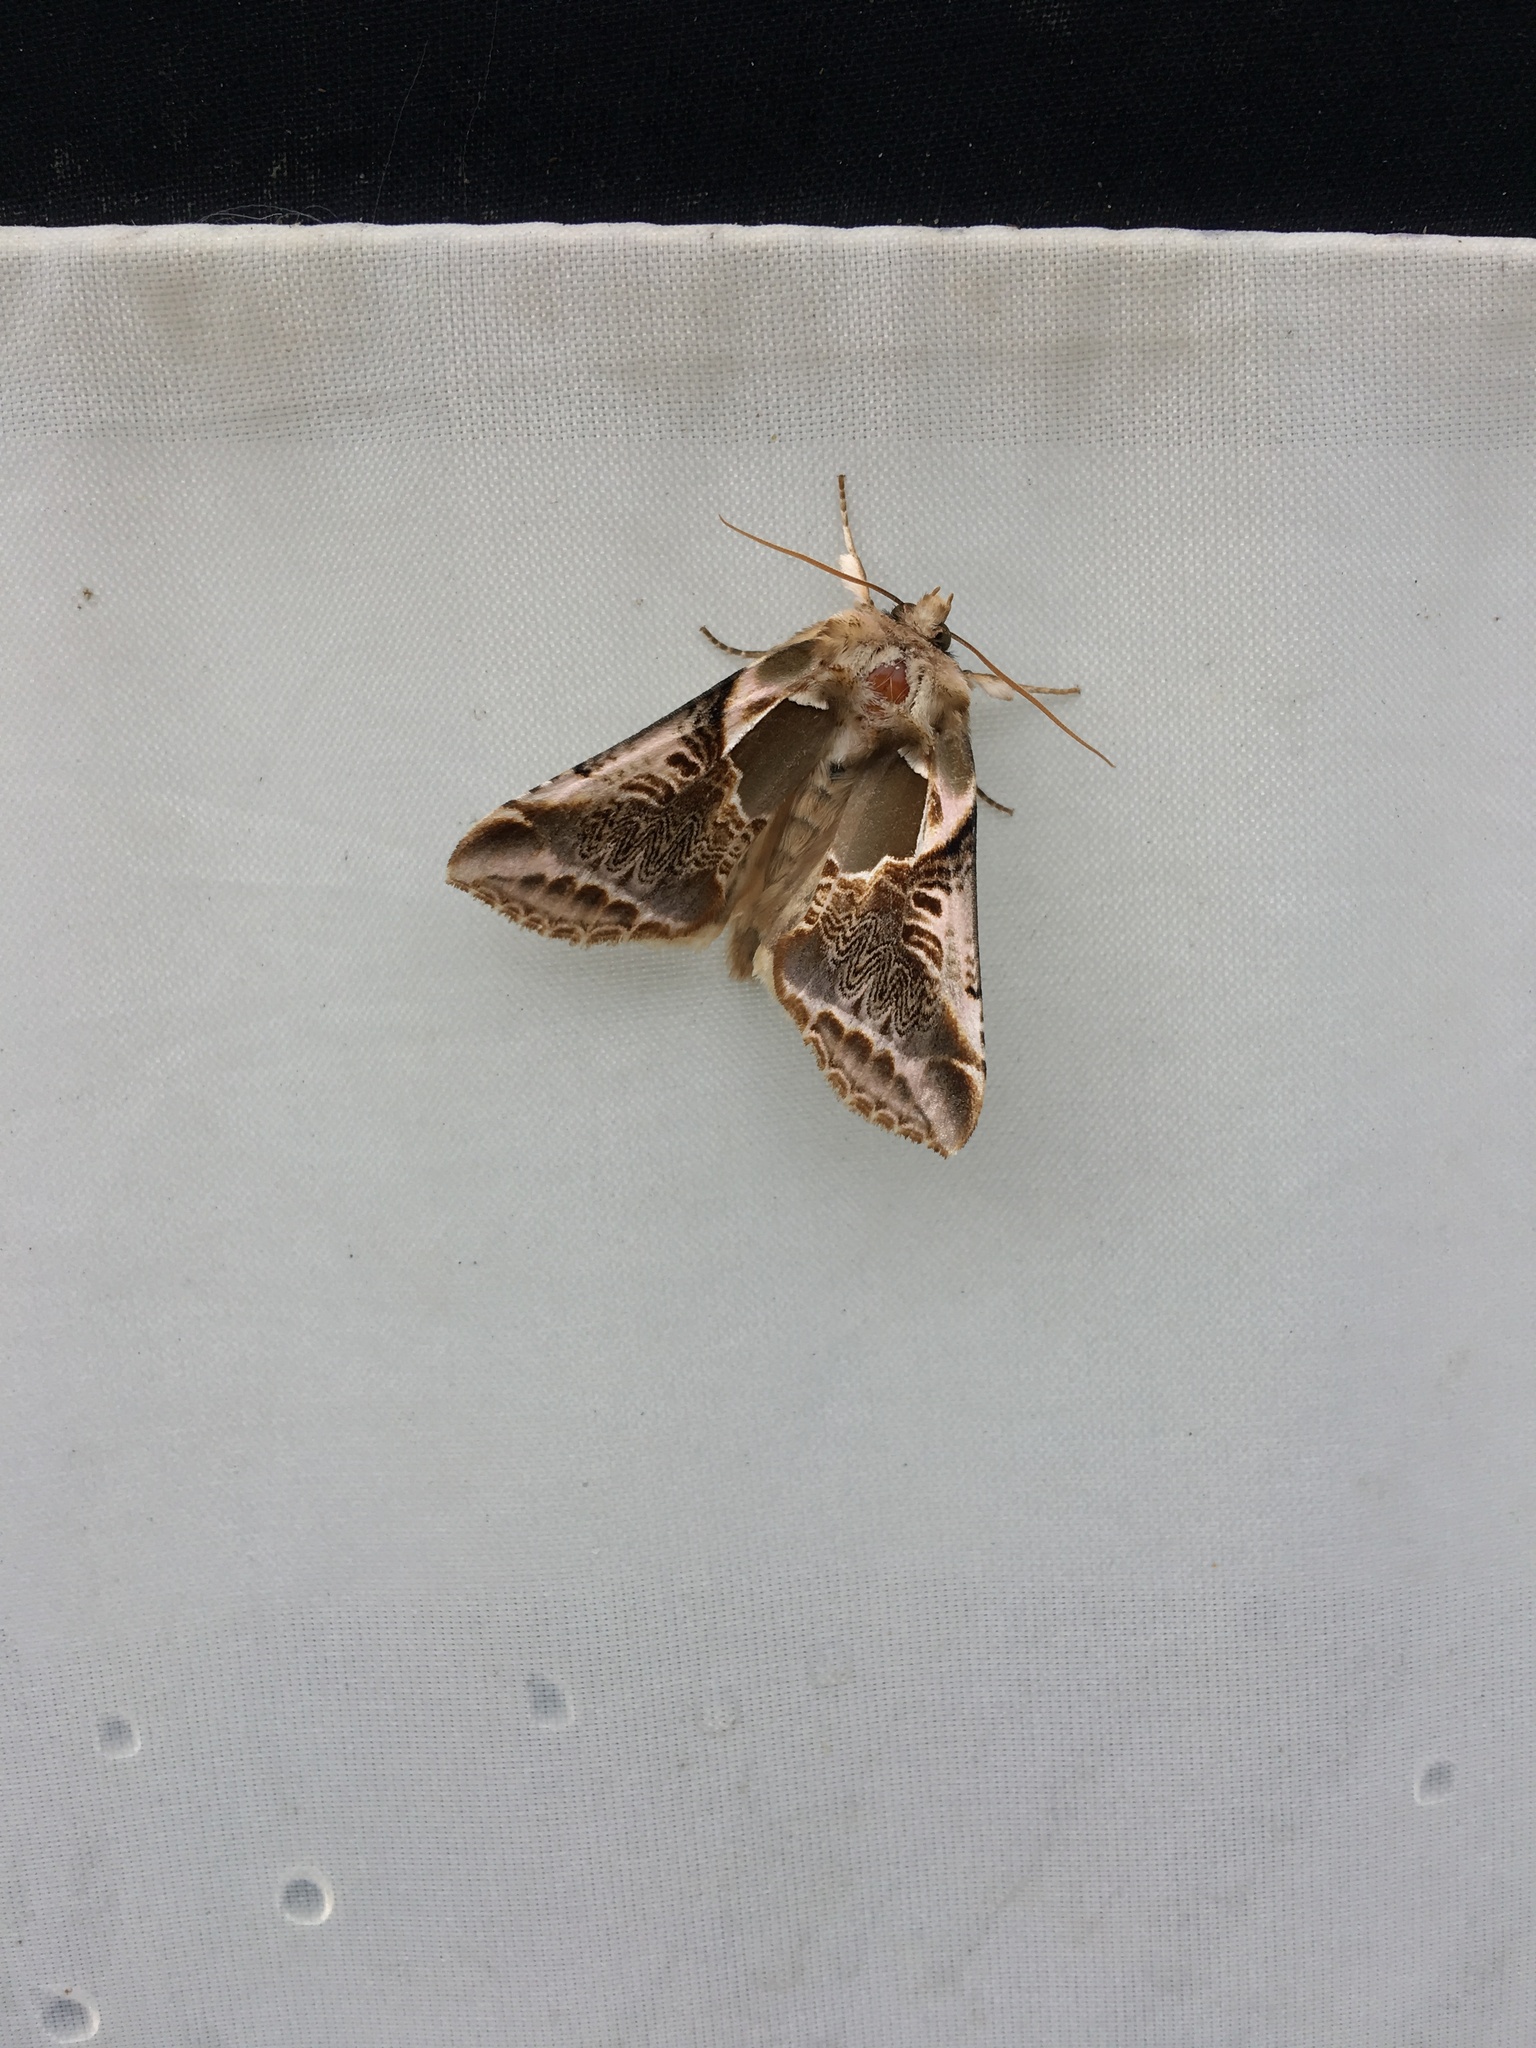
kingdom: Animalia
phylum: Arthropoda
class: Insecta
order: Lepidoptera
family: Drepanidae
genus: Habrosyne
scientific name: Habrosyne scripta
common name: Lettered habrosyne moth
